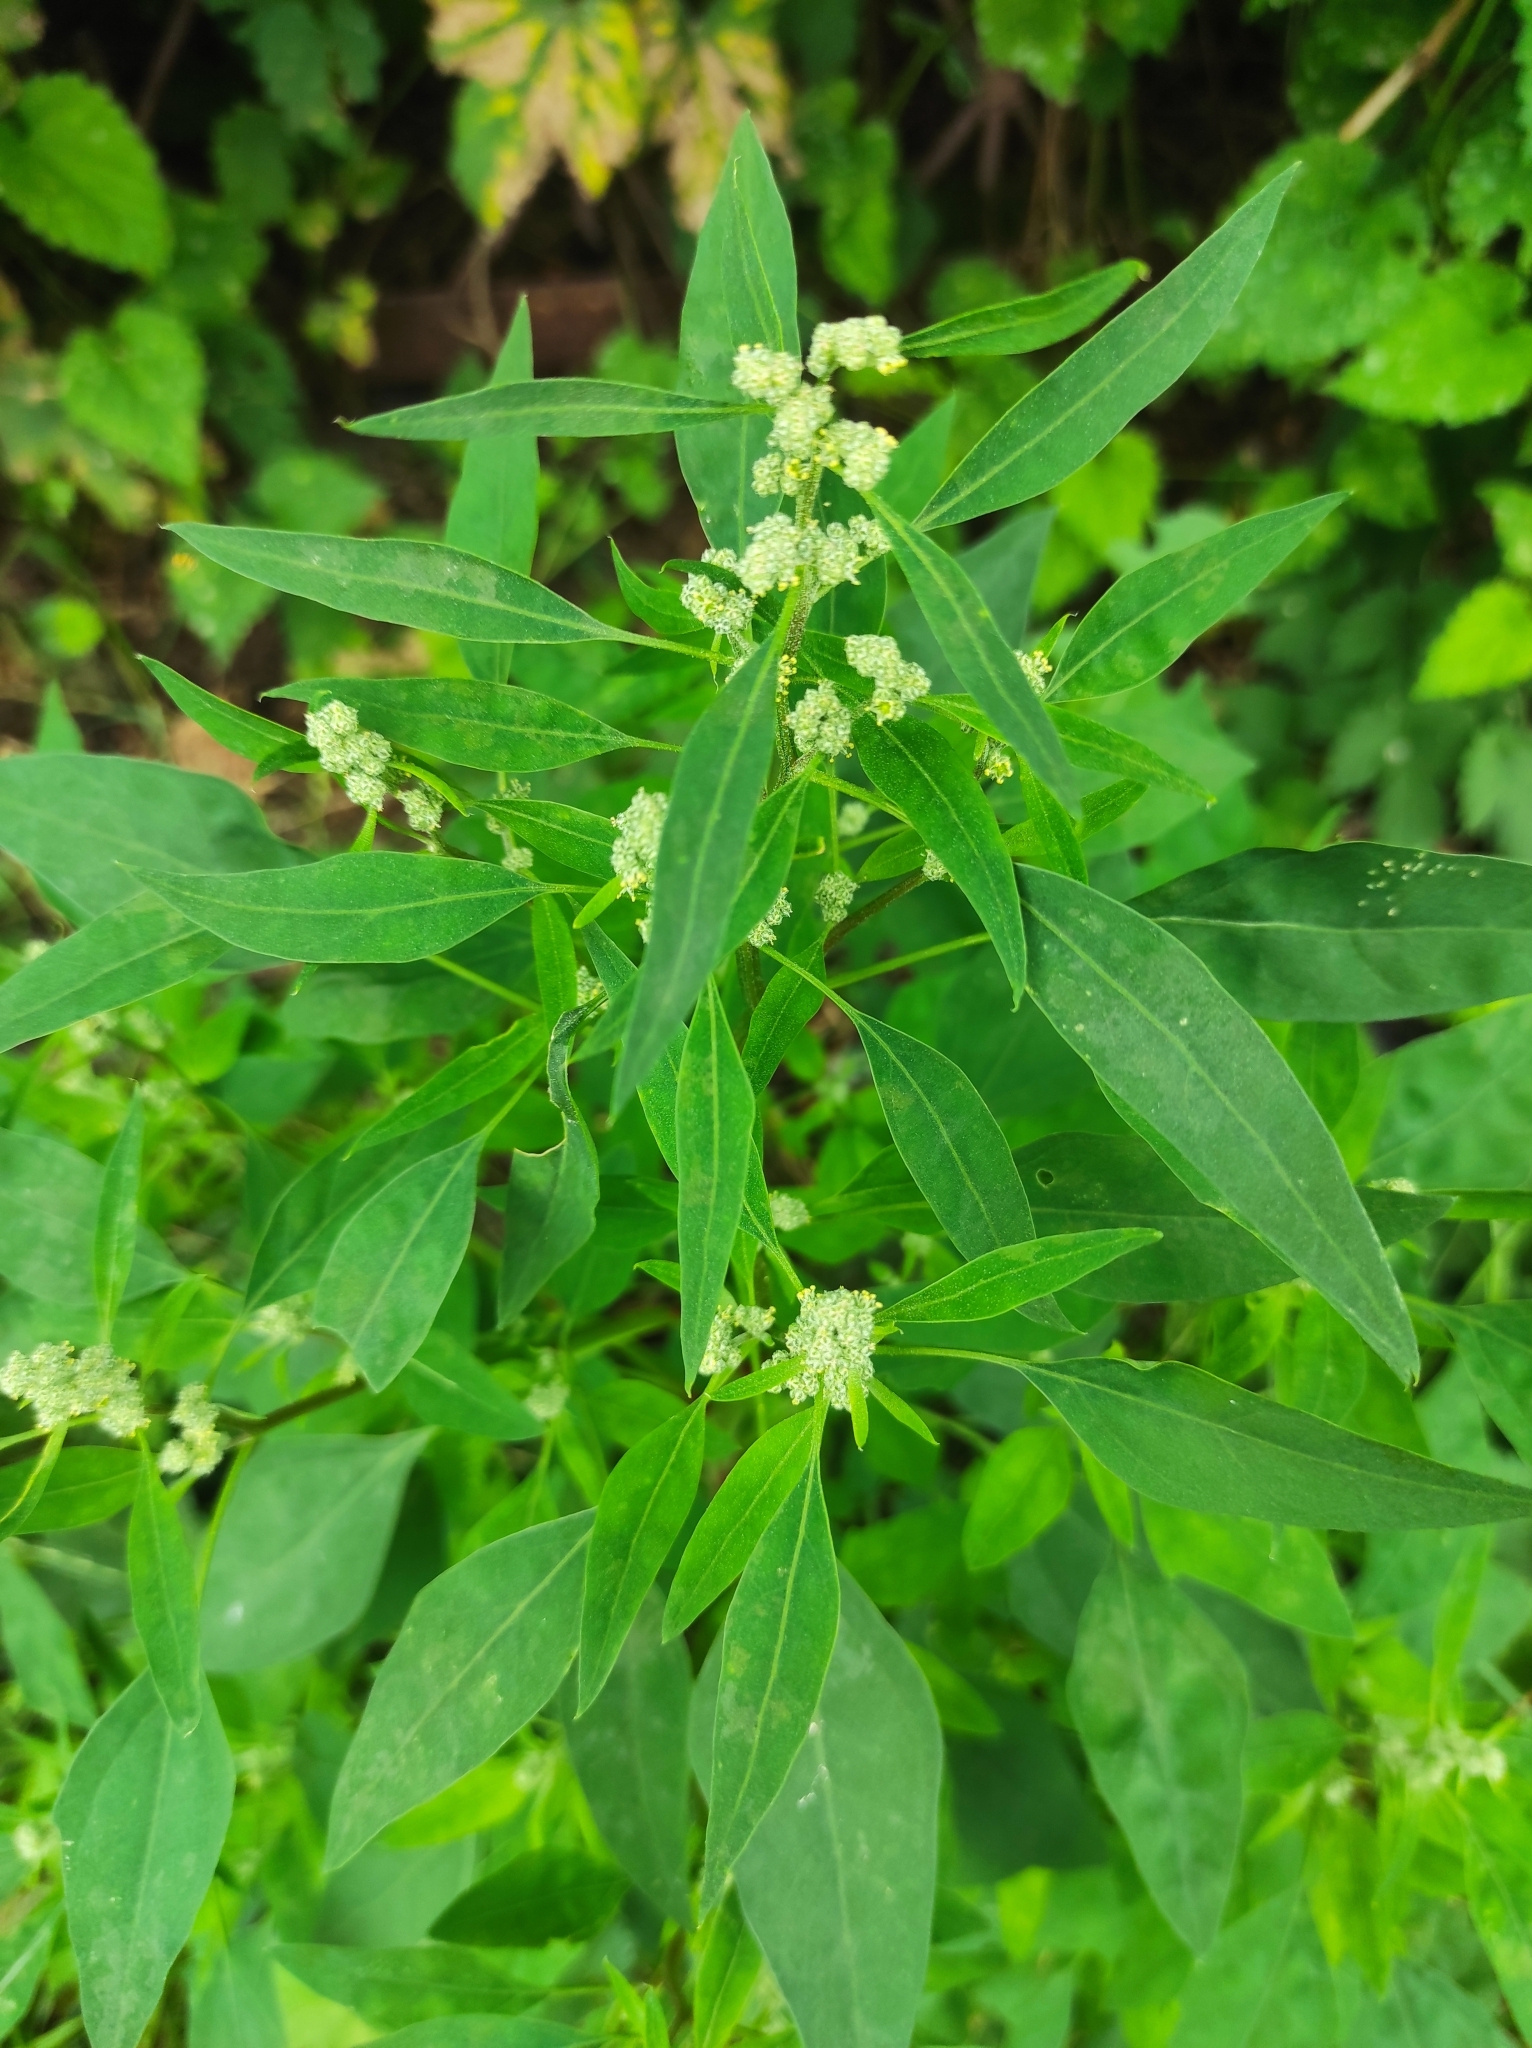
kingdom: Plantae
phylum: Tracheophyta
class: Magnoliopsida
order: Caryophyllales
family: Amaranthaceae
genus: Chenopodium
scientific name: Chenopodium album
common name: Fat-hen
